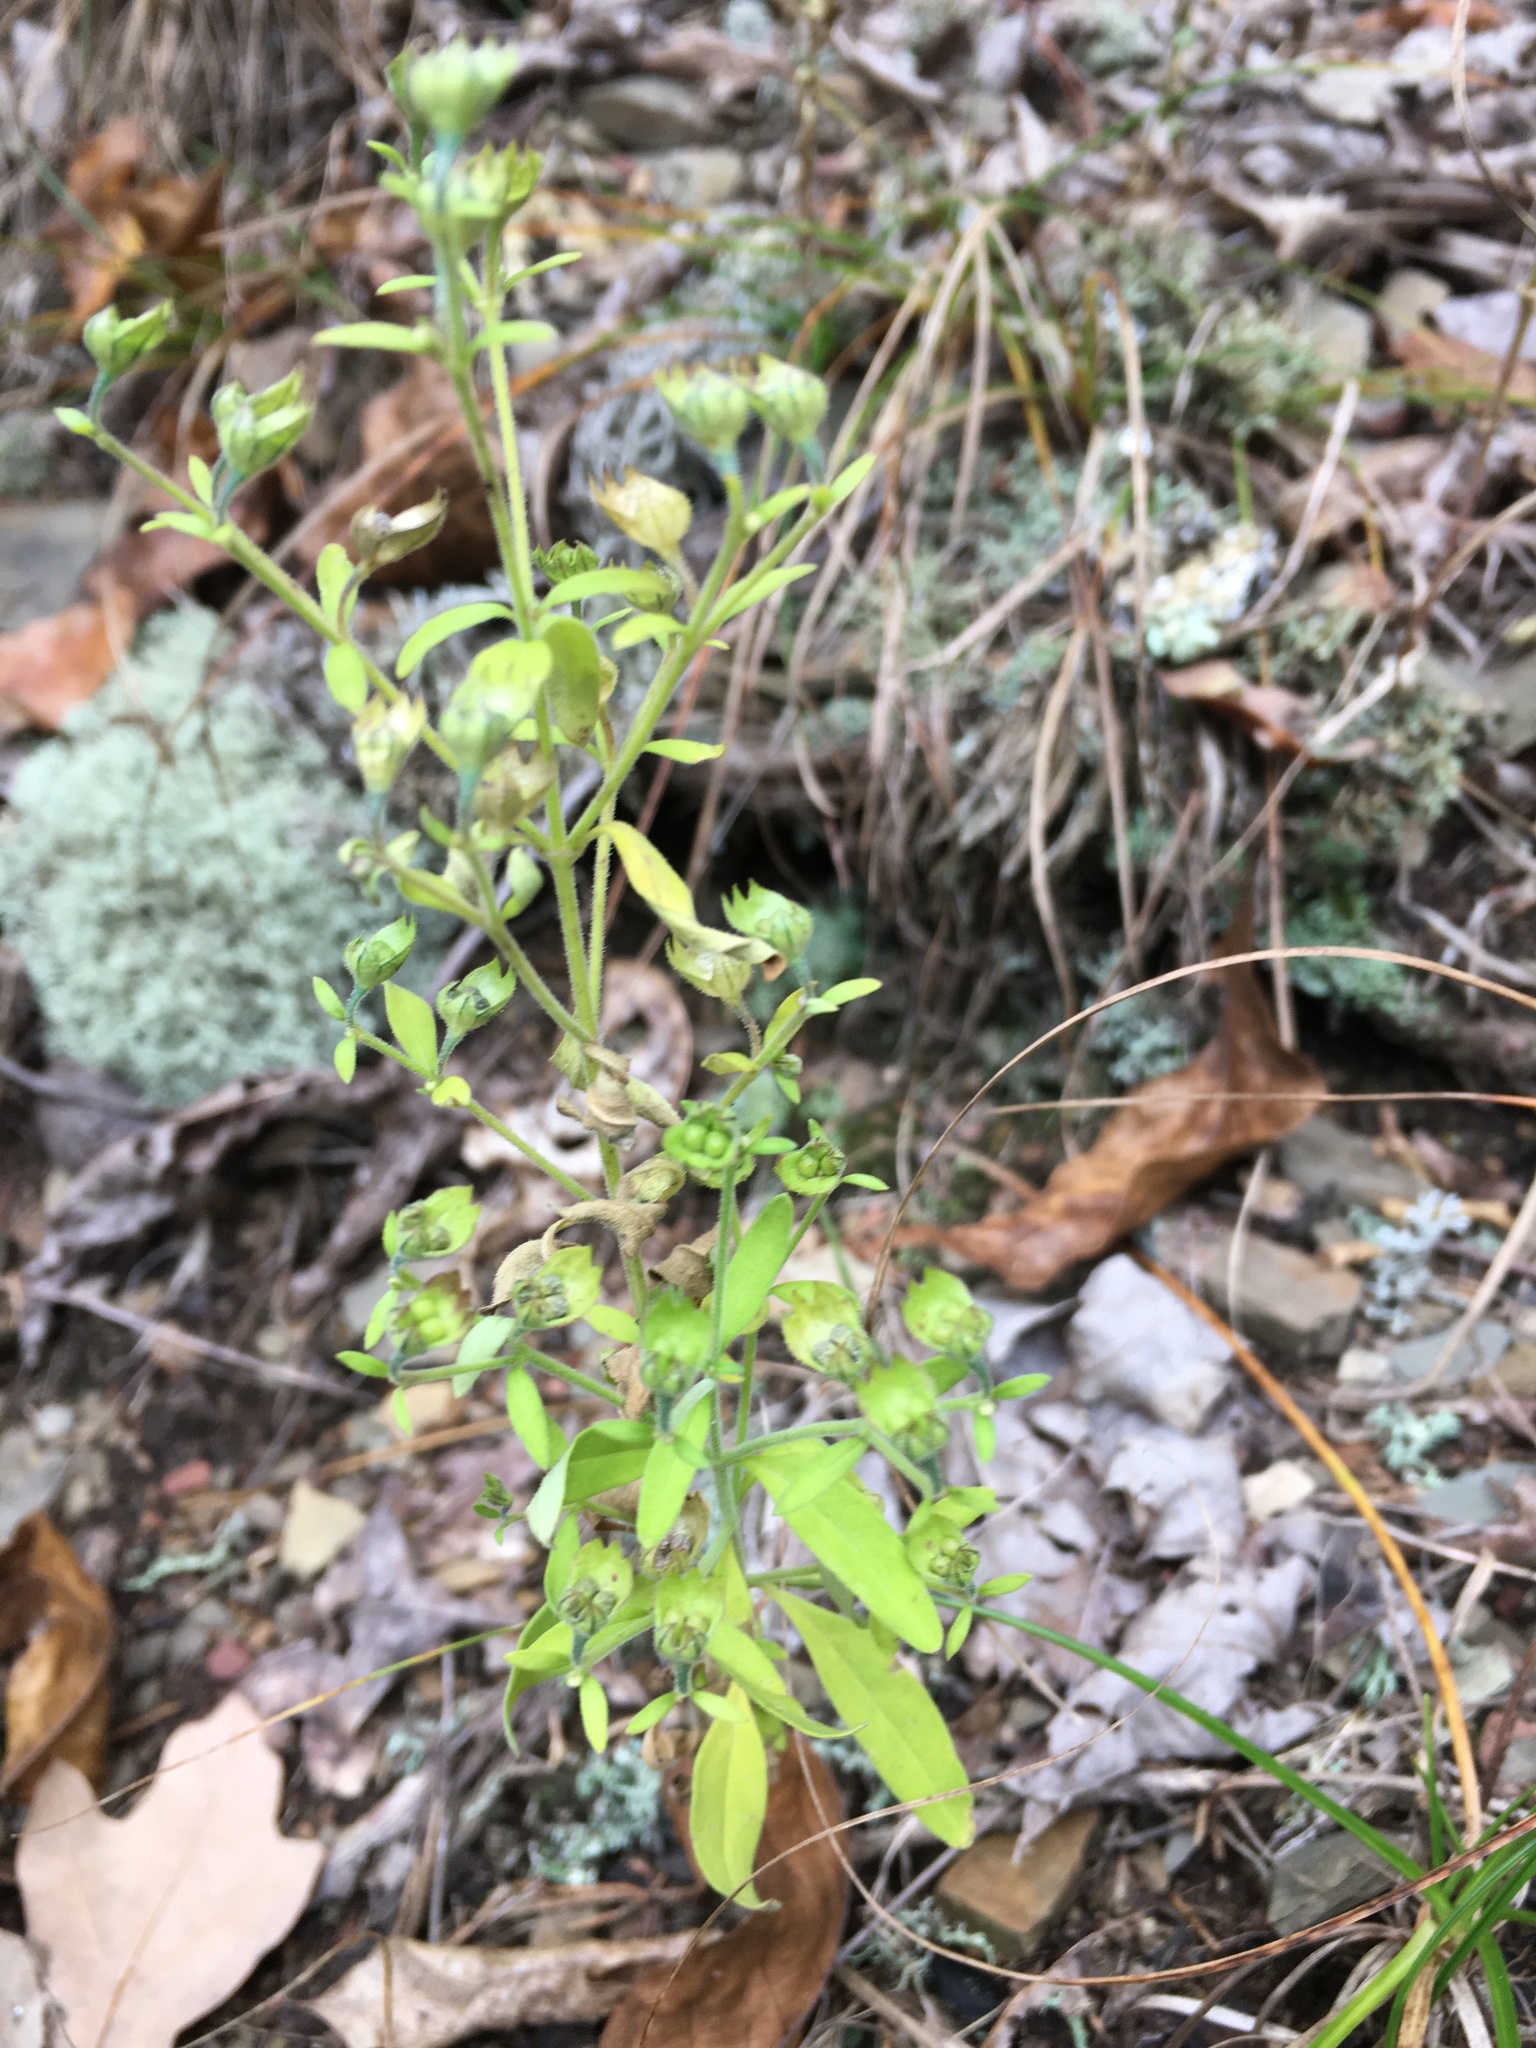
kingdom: Plantae
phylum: Tracheophyta
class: Magnoliopsida
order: Lamiales
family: Lamiaceae
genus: Trichostema
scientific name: Trichostema dichotomum
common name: Bastard pennyroyal
